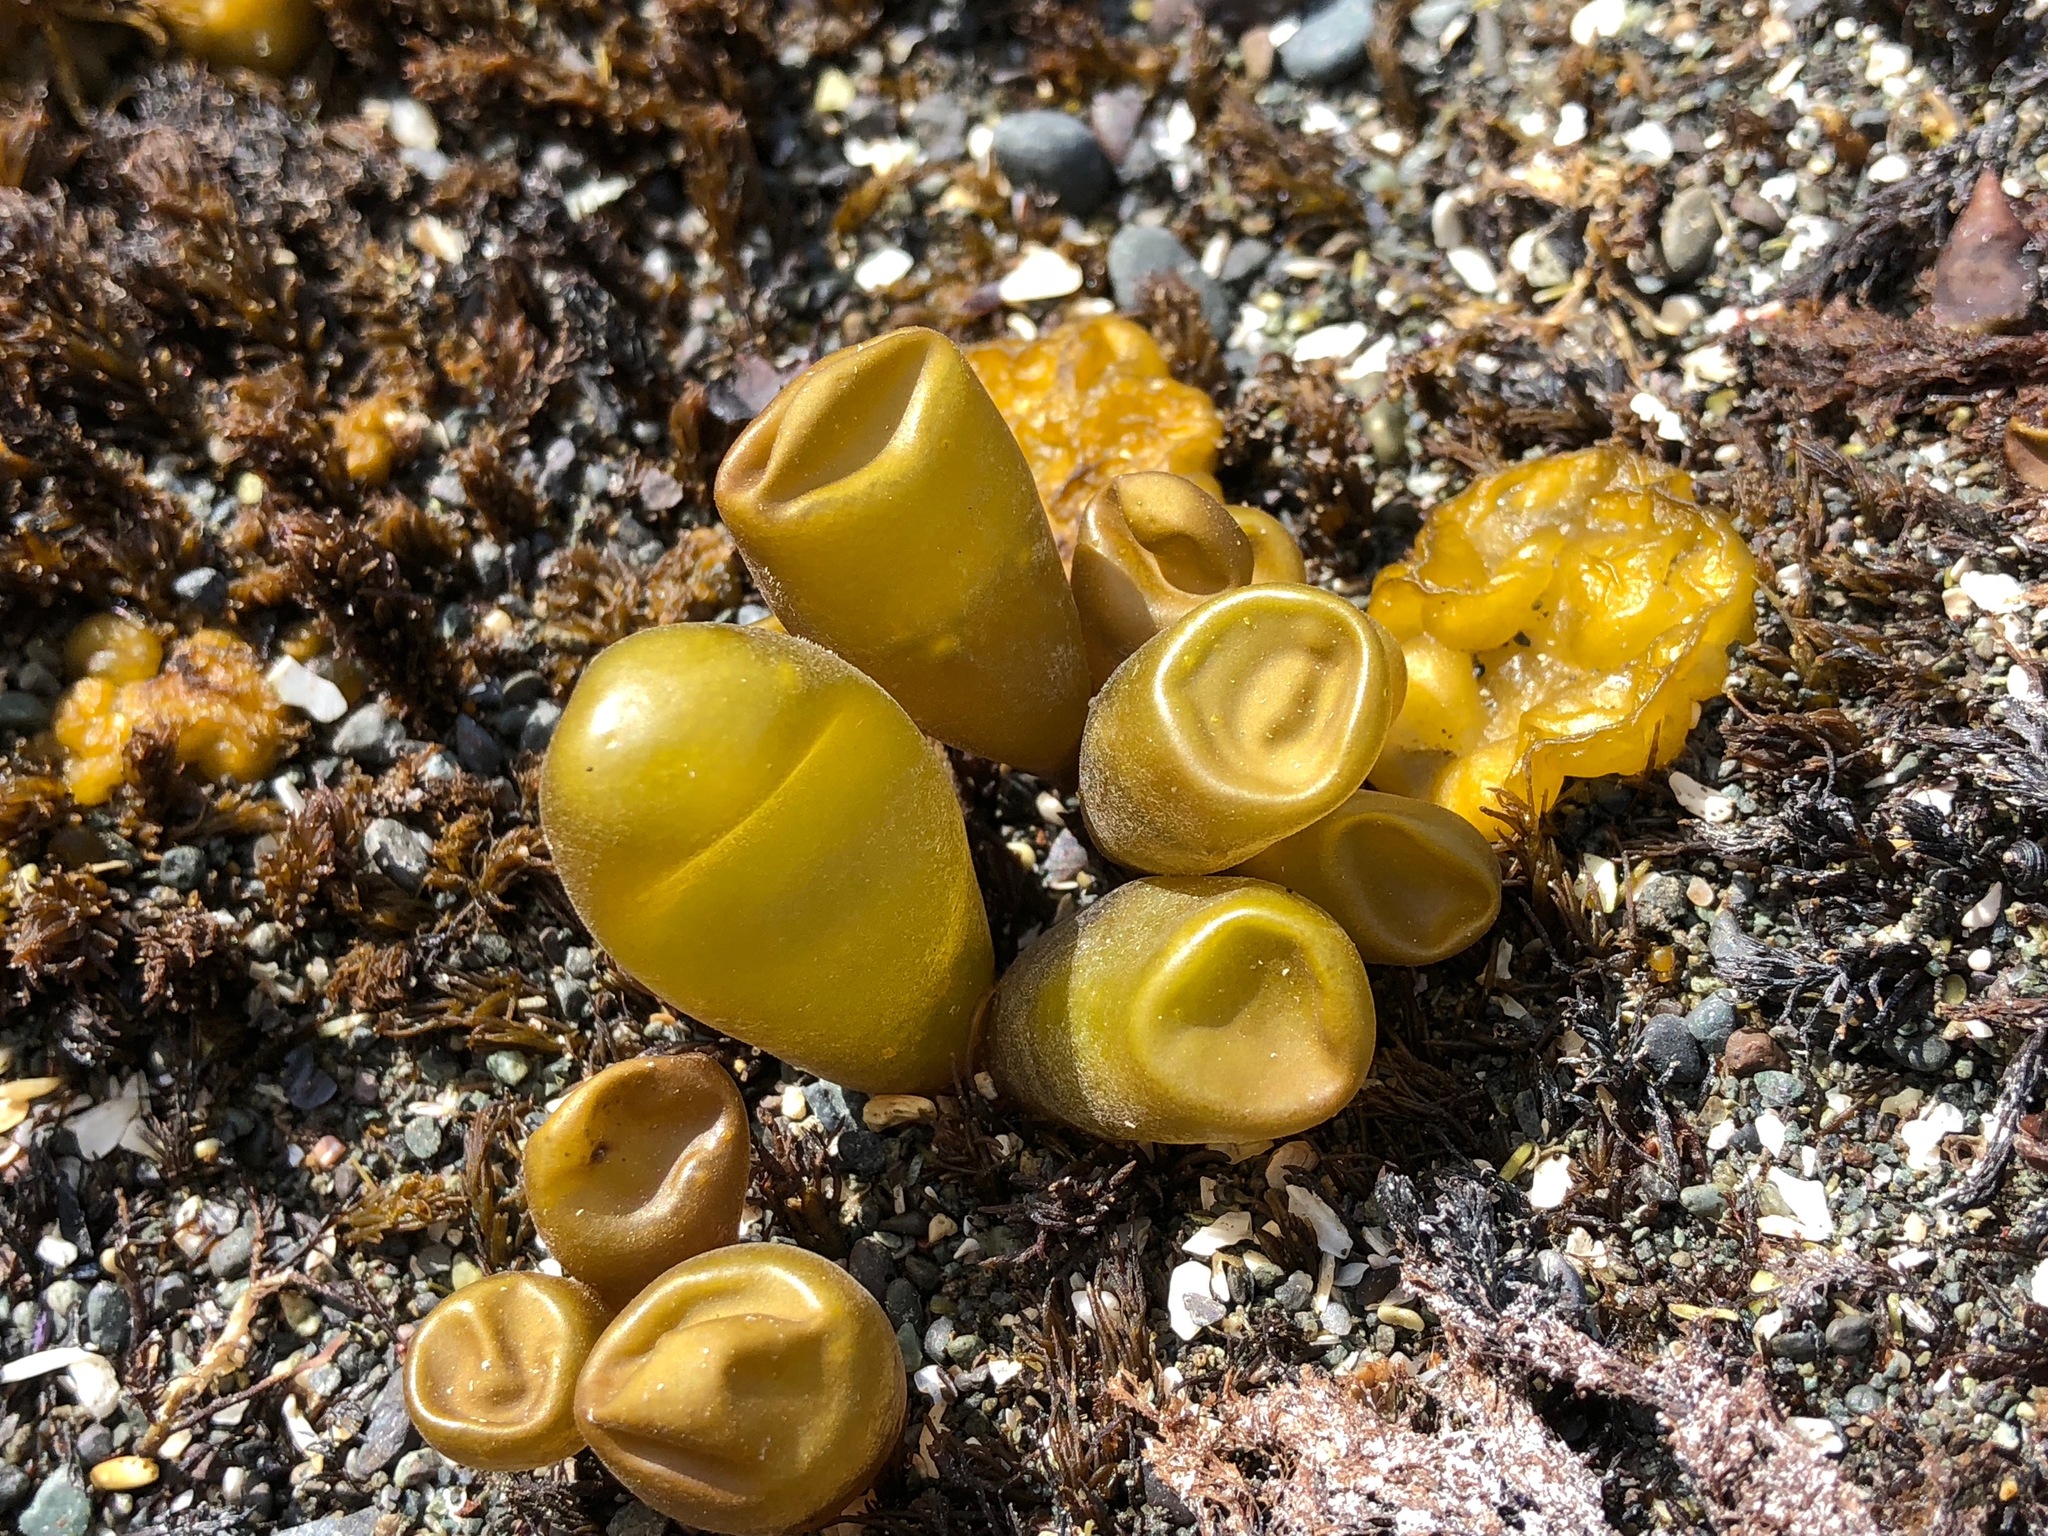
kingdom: Plantae
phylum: Rhodophyta
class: Florideophyceae
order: Palmariales
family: Palmariaceae
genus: Halosaccion
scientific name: Halosaccion glandiforme
